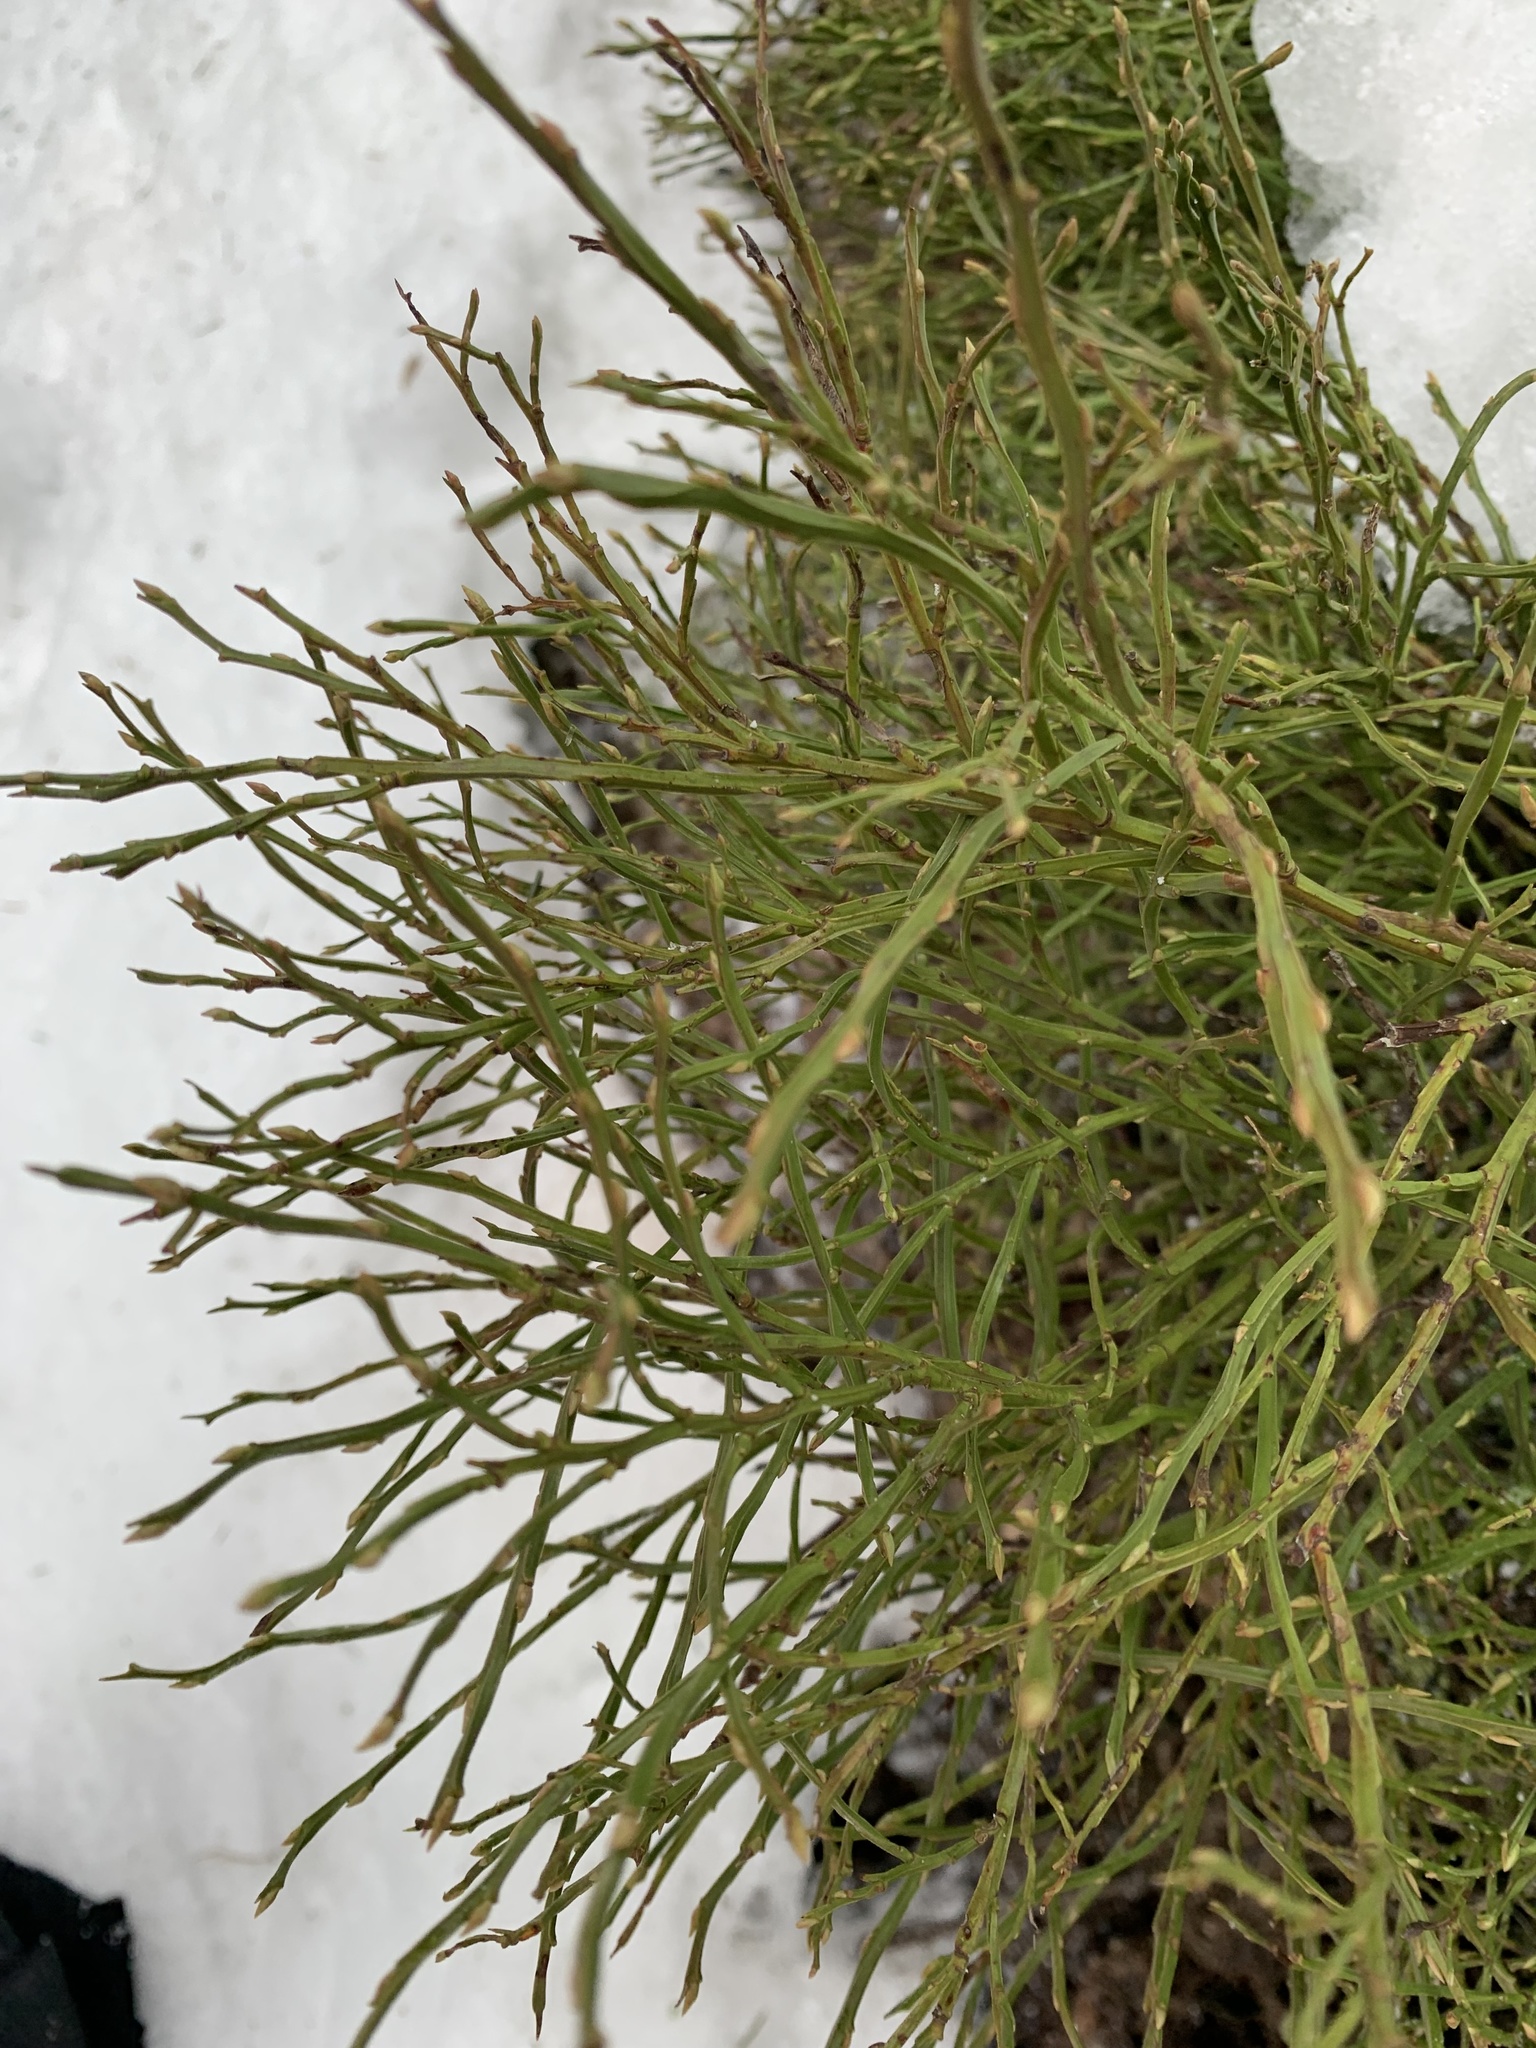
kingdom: Plantae
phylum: Tracheophyta
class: Magnoliopsida
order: Ericales
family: Ericaceae
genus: Vaccinium
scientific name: Vaccinium myrtillus
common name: Bilberry
